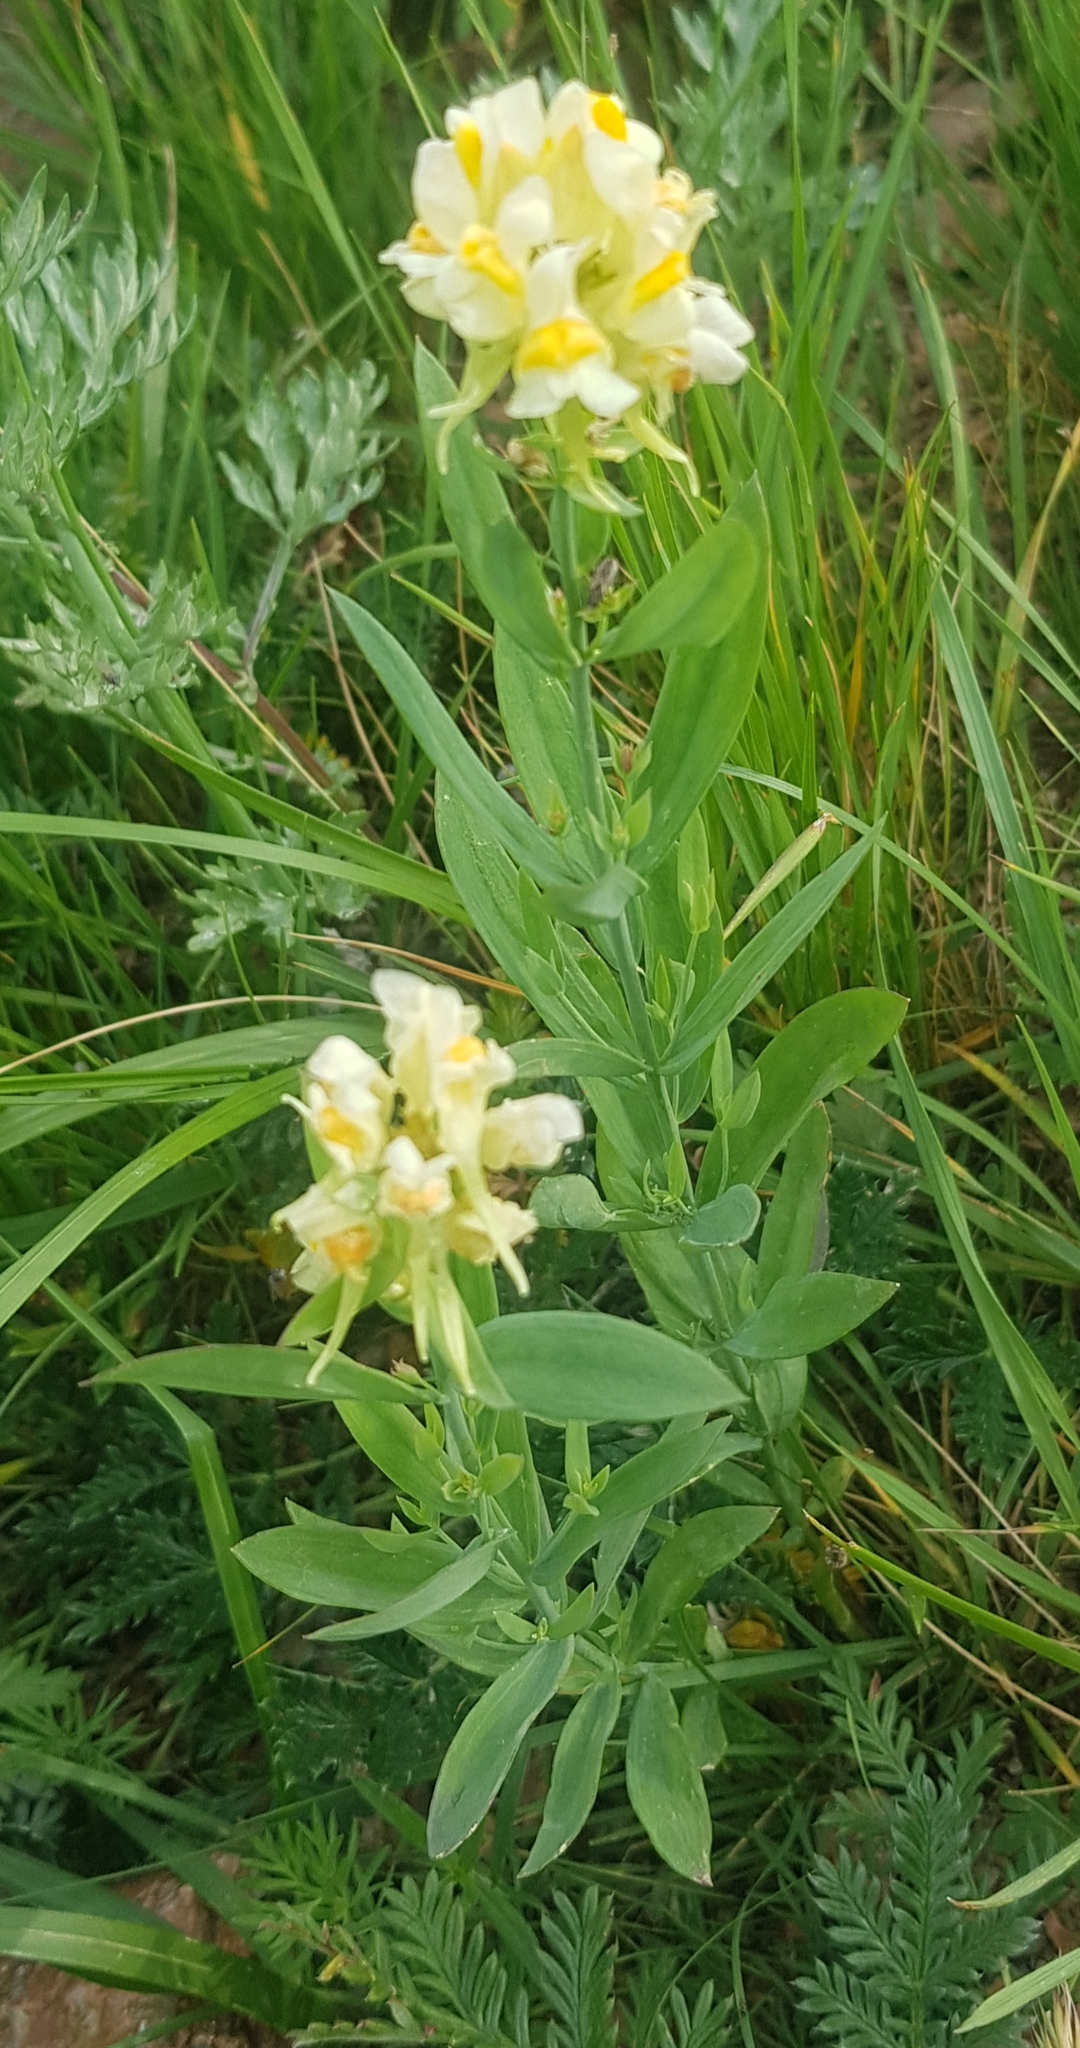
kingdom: Plantae
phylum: Tracheophyta
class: Magnoliopsida
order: Lamiales
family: Plantaginaceae
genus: Linaria
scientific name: Linaria acutiloba
